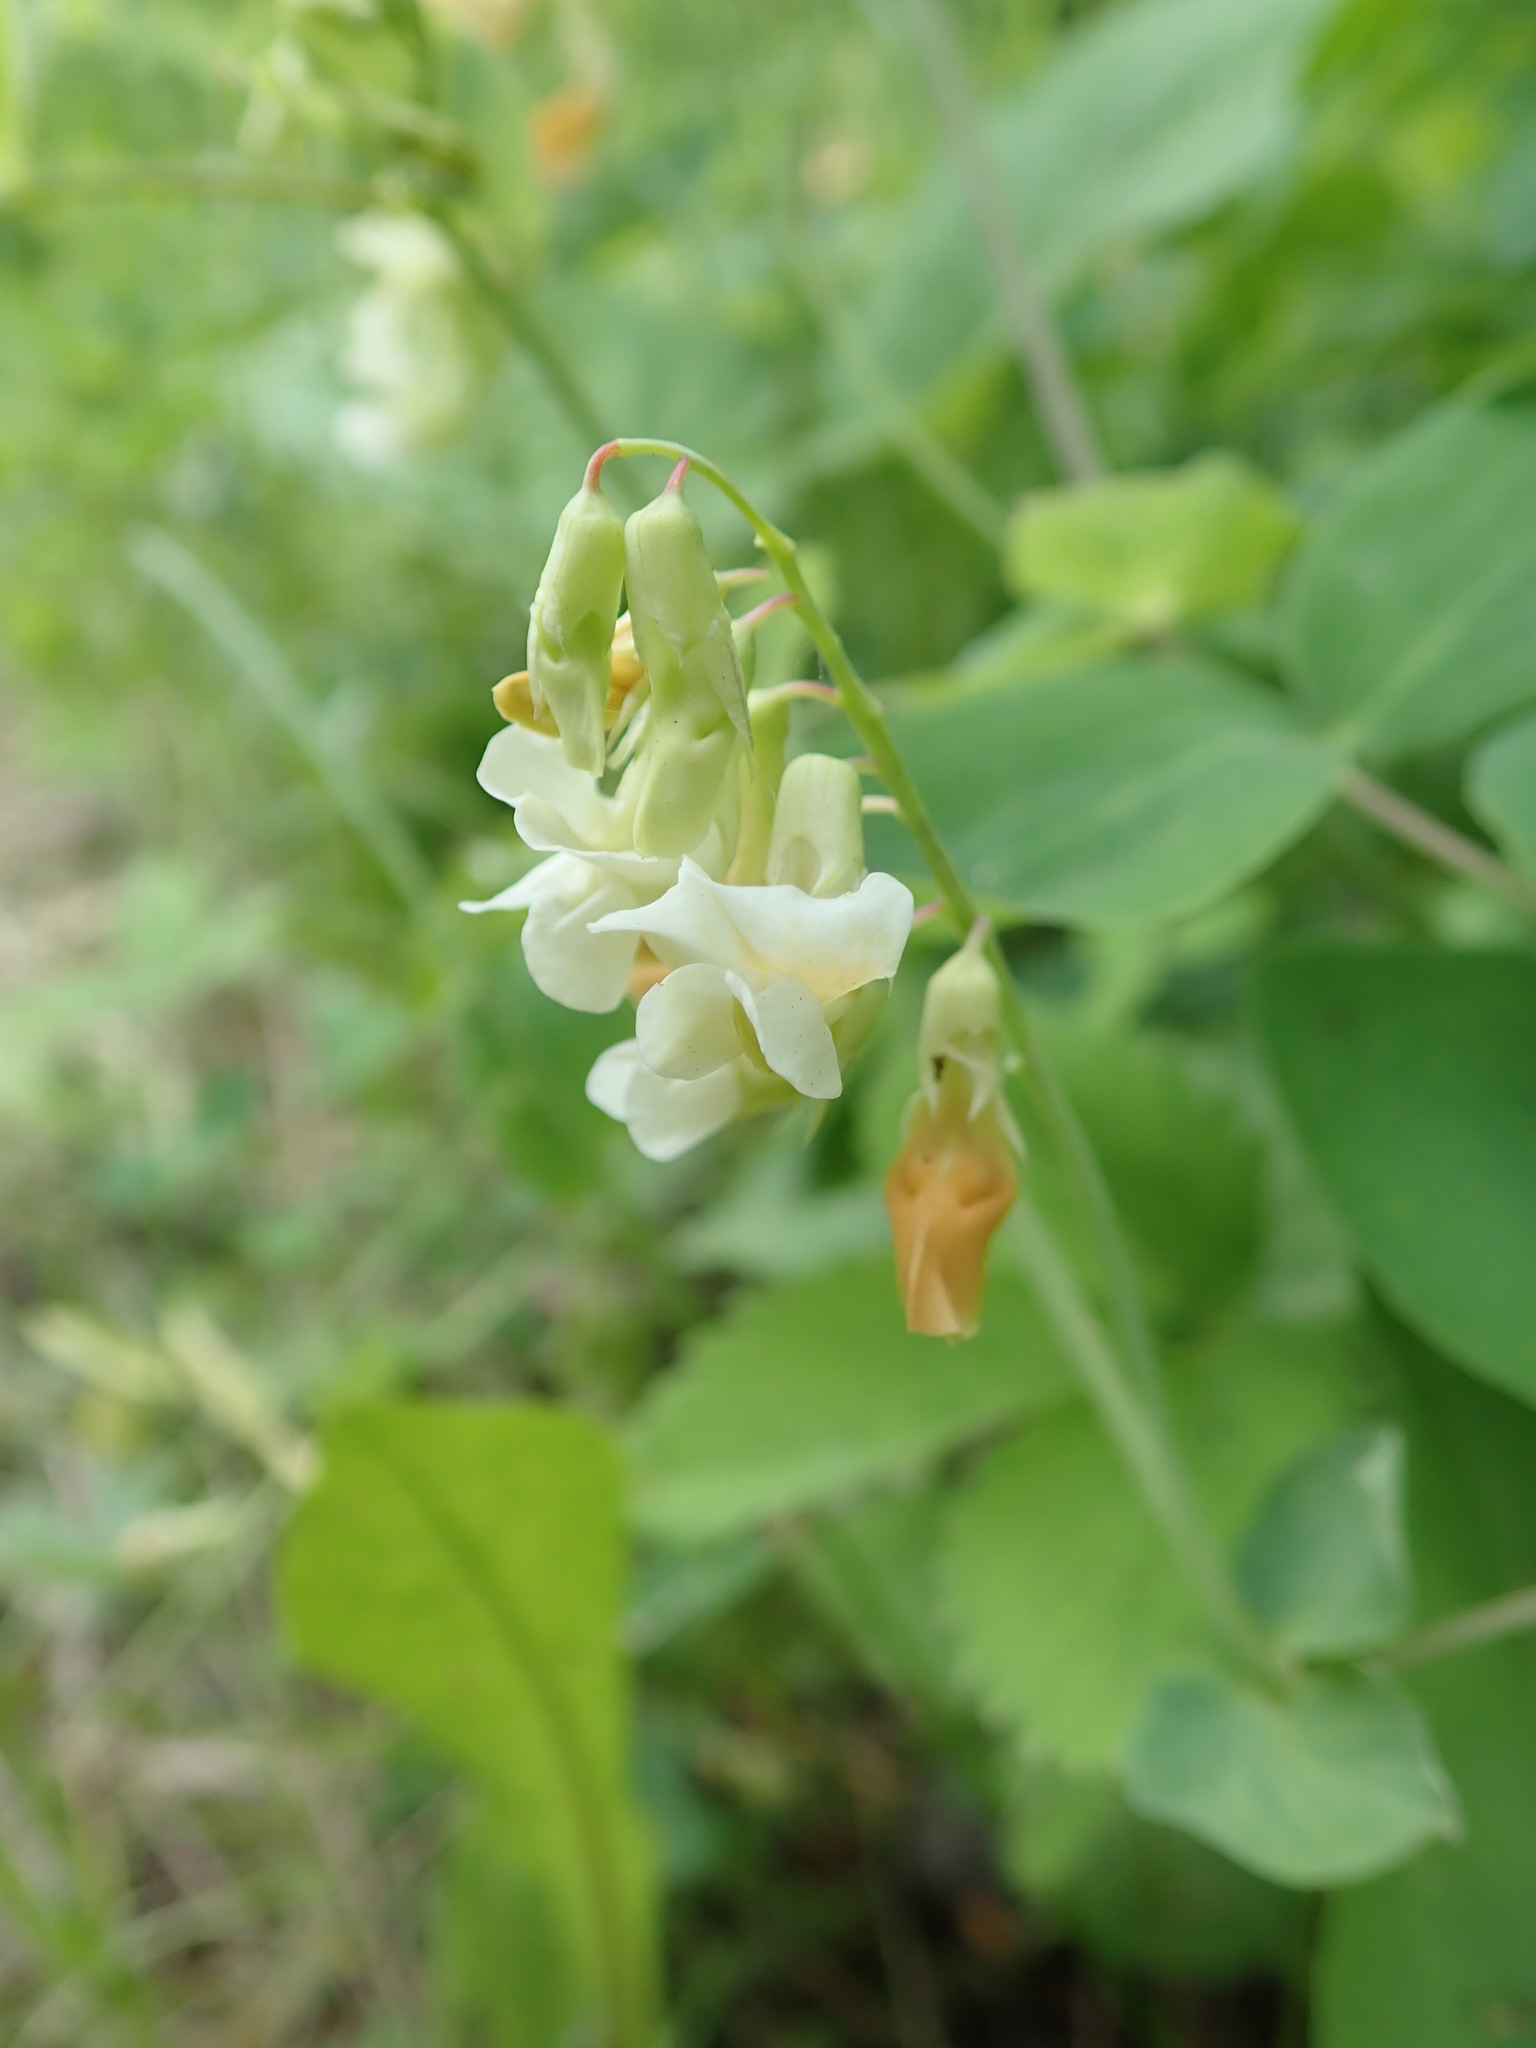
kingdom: Plantae
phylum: Tracheophyta
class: Magnoliopsida
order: Fabales
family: Fabaceae
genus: Lathyrus
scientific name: Lathyrus ochroleucus
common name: Pale vetchling
